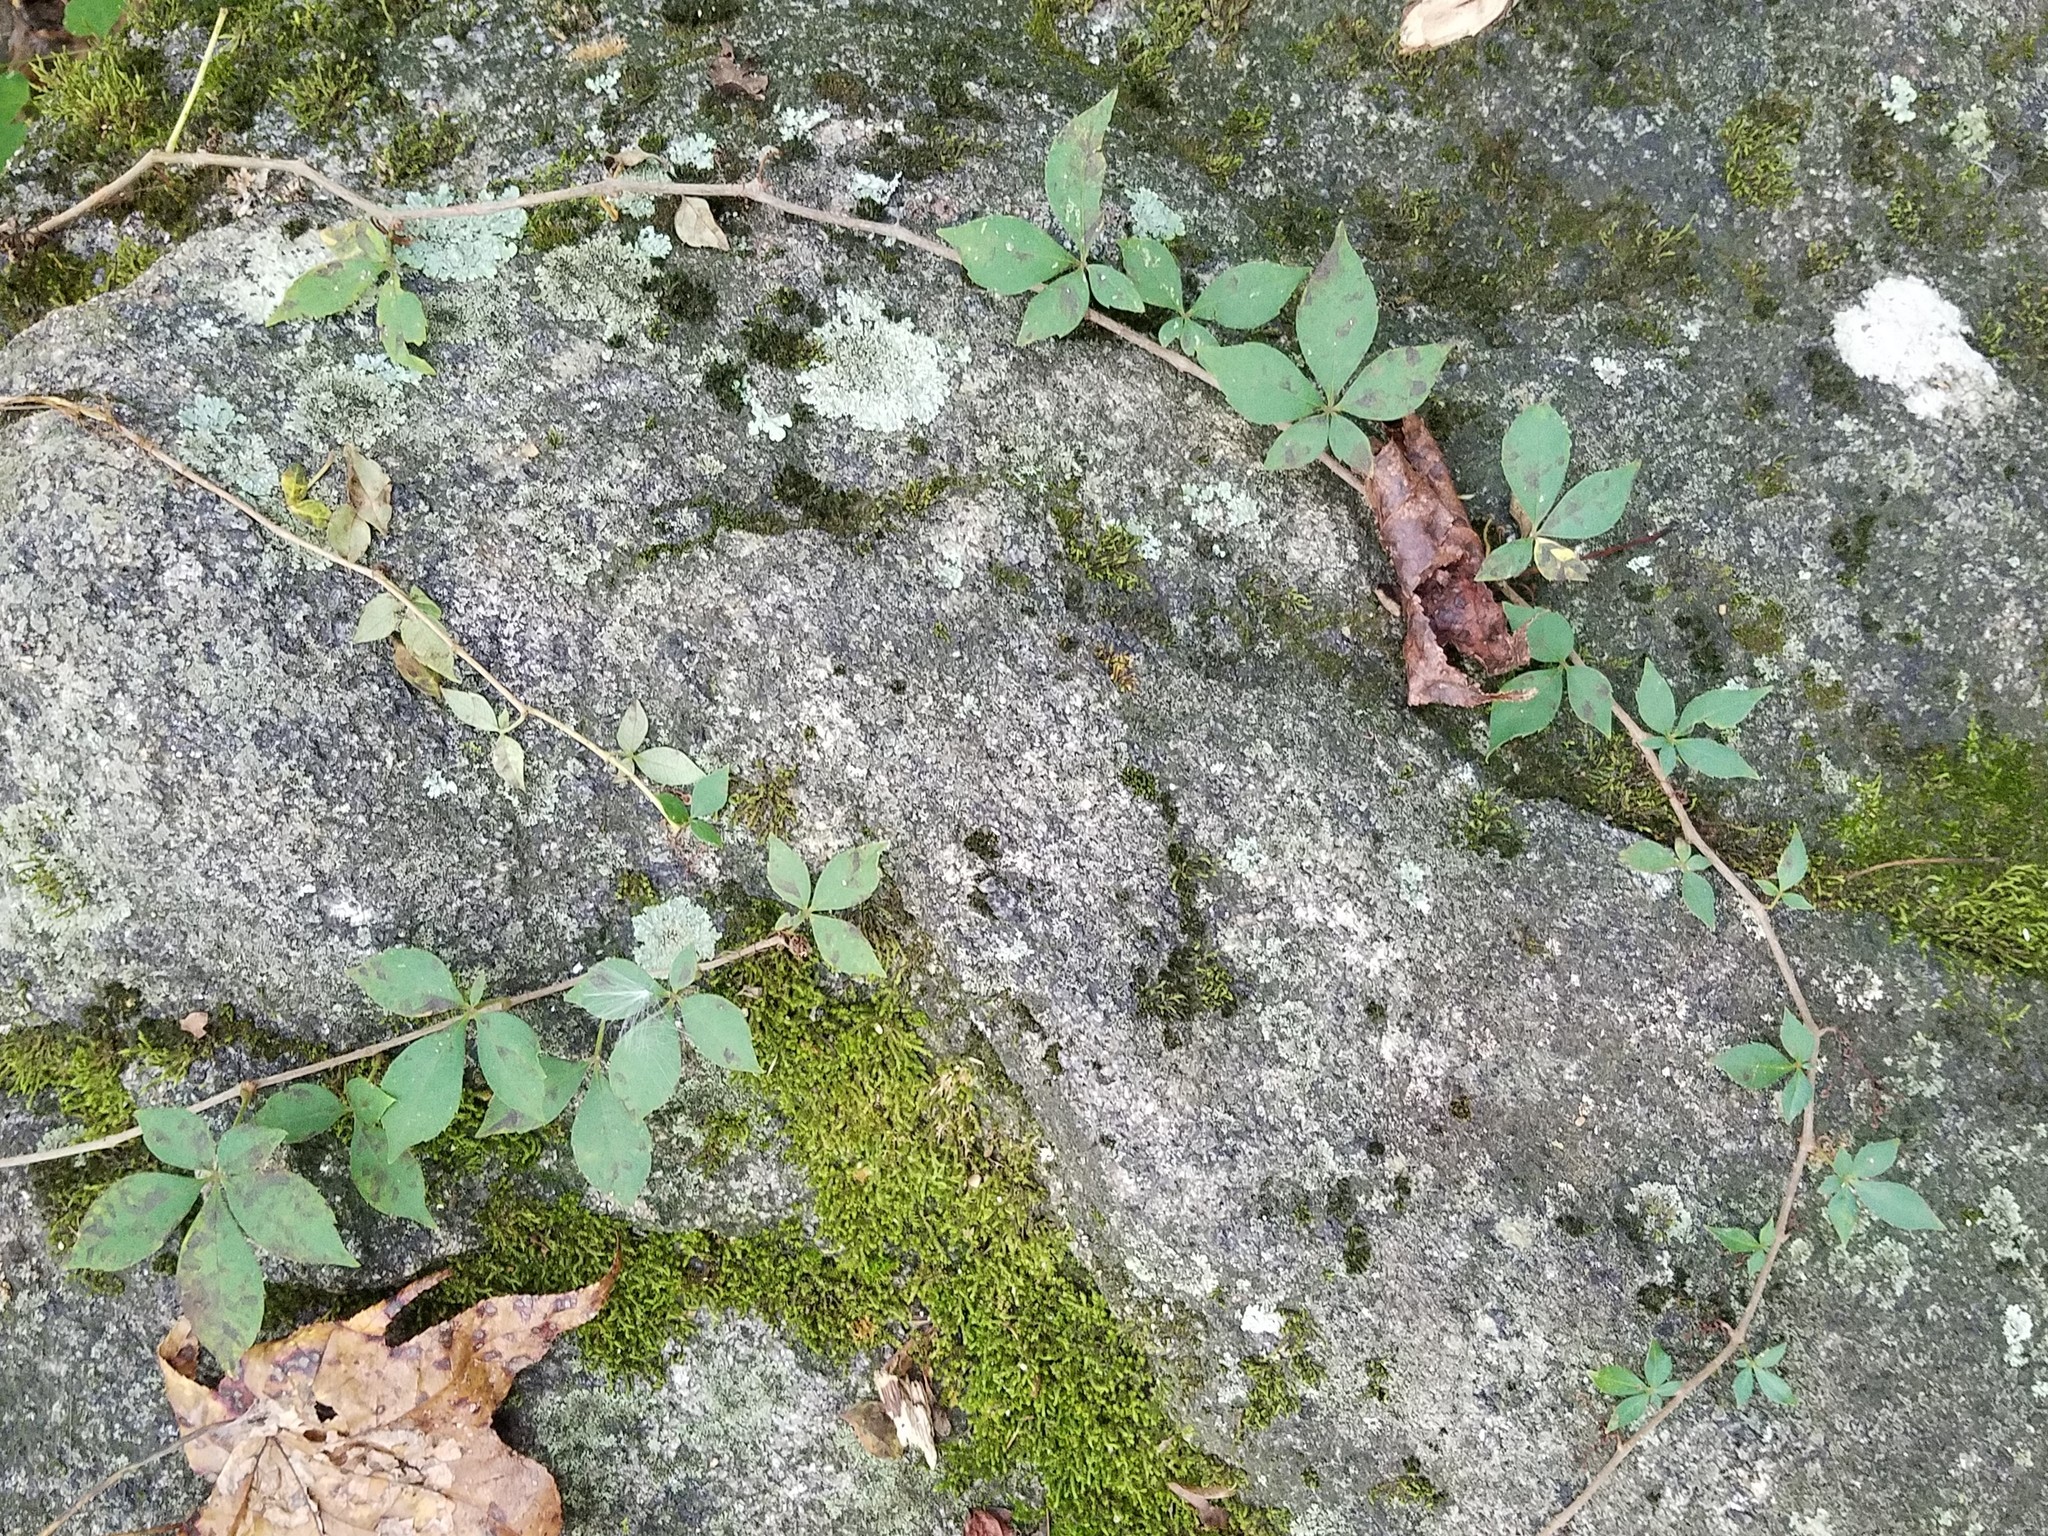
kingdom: Plantae
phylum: Tracheophyta
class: Magnoliopsida
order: Vitales
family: Vitaceae
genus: Parthenocissus
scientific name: Parthenocissus quinquefolia
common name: Virginia-creeper
